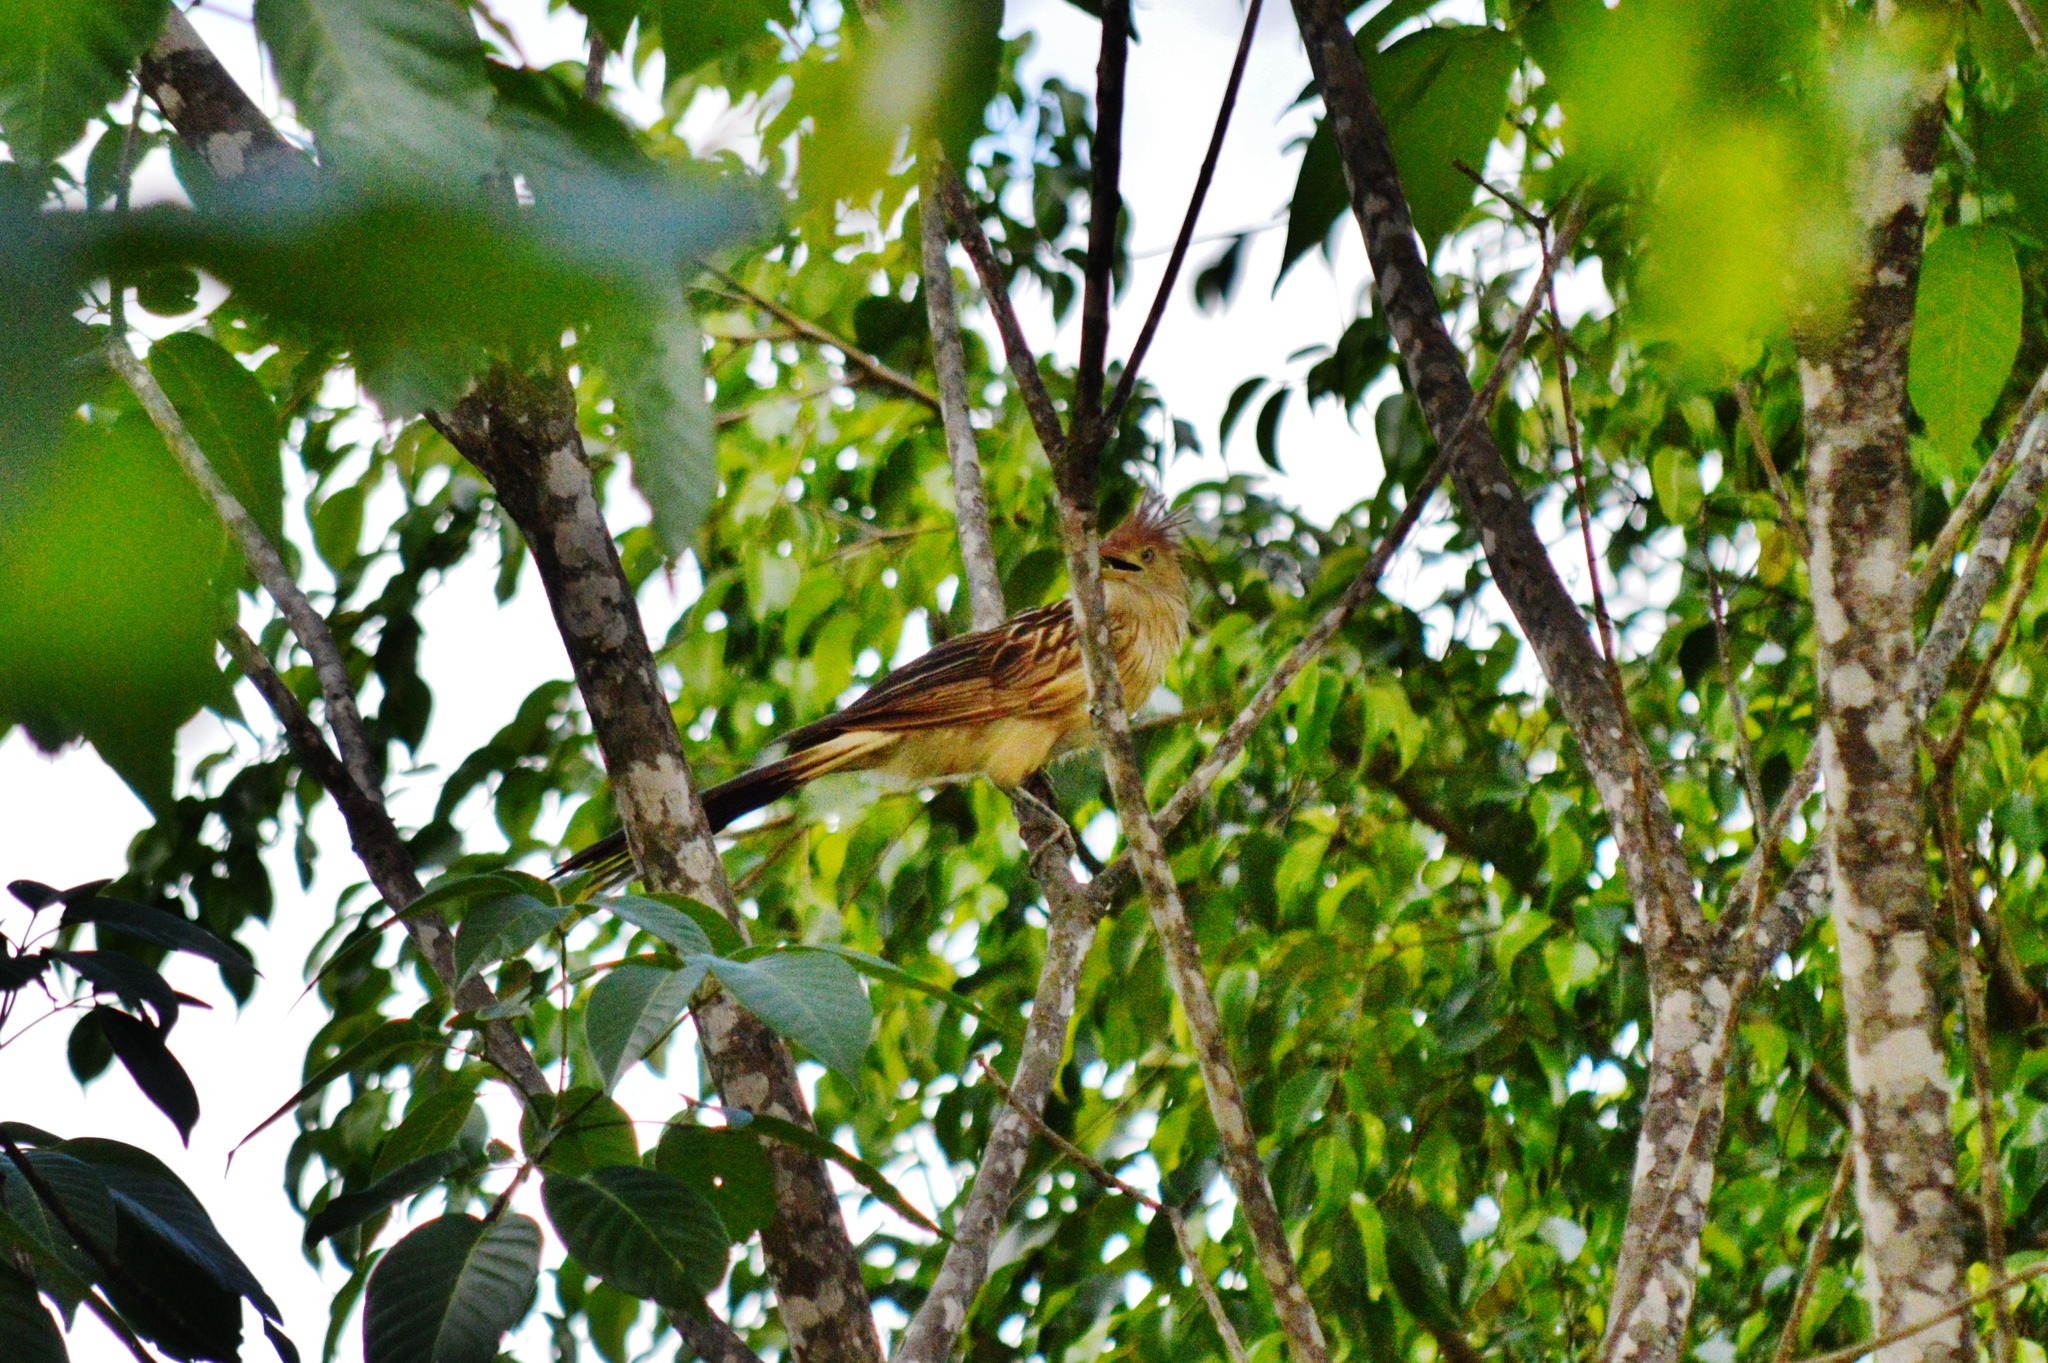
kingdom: Animalia
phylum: Chordata
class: Aves
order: Cuculiformes
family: Cuculidae
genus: Guira
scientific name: Guira guira
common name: Guira cuckoo
